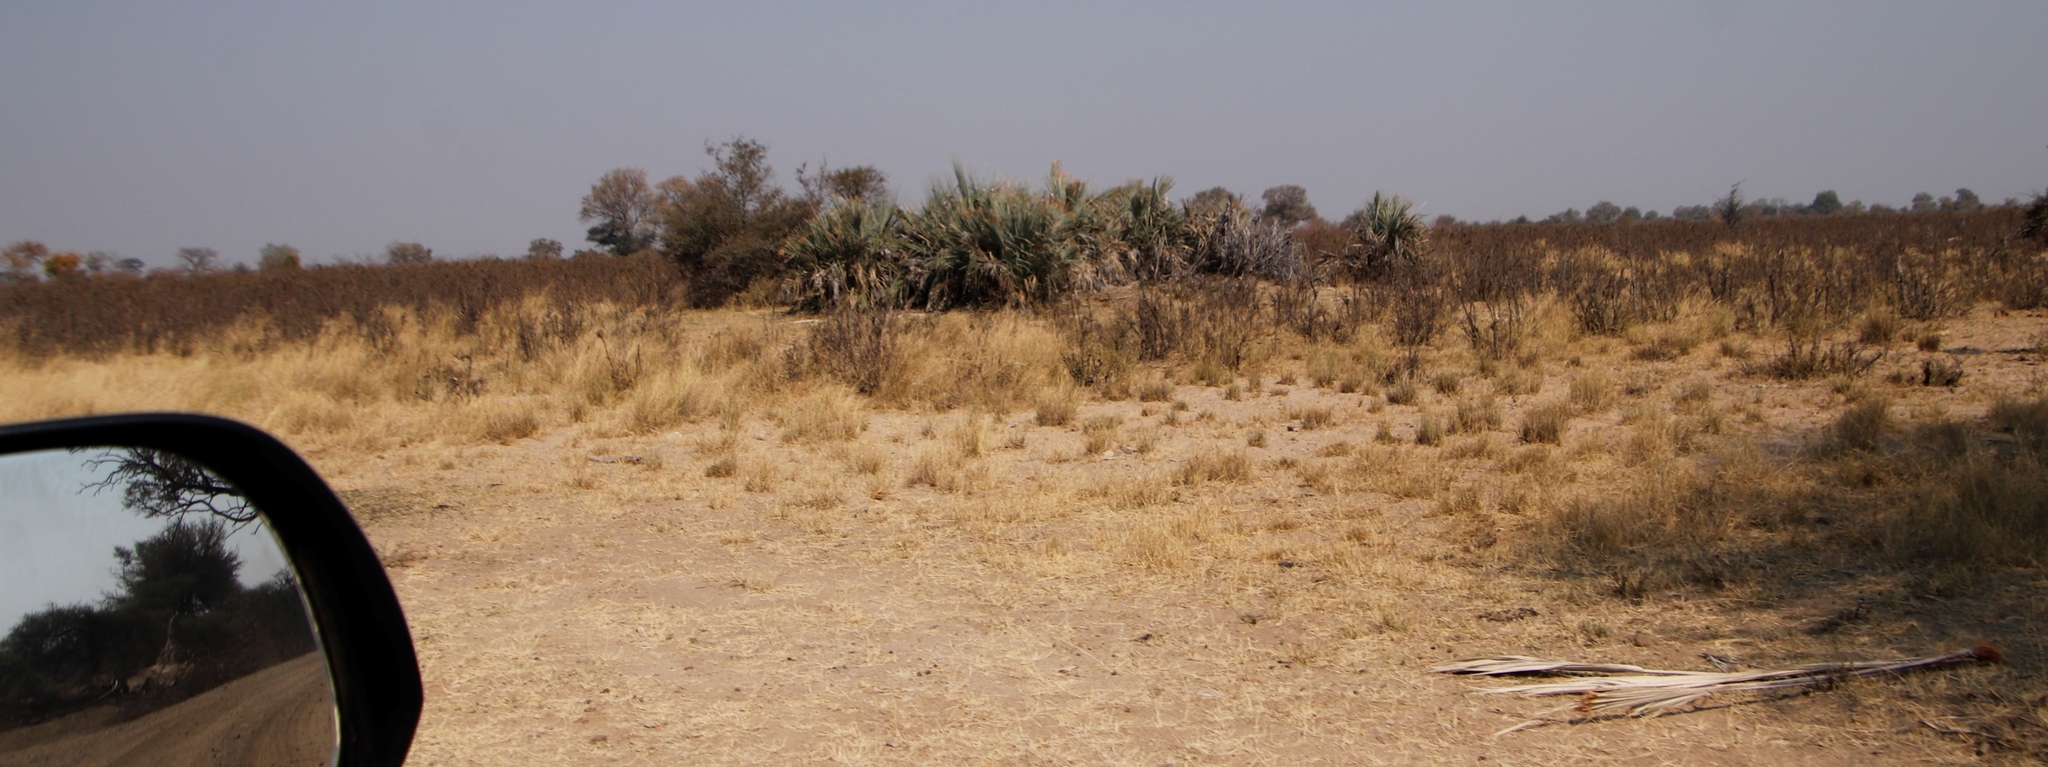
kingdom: Plantae
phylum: Tracheophyta
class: Liliopsida
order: Arecales
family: Arecaceae
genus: Hyphaene
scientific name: Hyphaene petersiana
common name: African ivory nut palm
